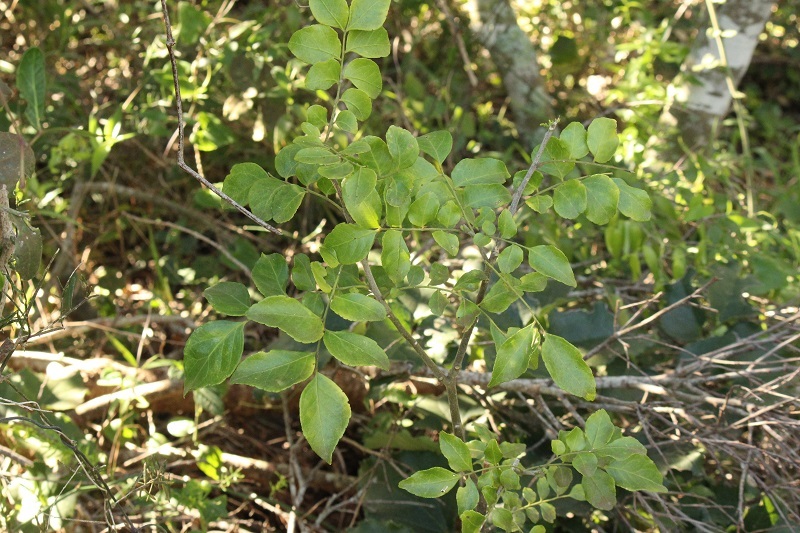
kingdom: Plantae
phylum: Tracheophyta
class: Magnoliopsida
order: Sapindales
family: Rutaceae
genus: Clausena
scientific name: Clausena anisata
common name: Horsewood
